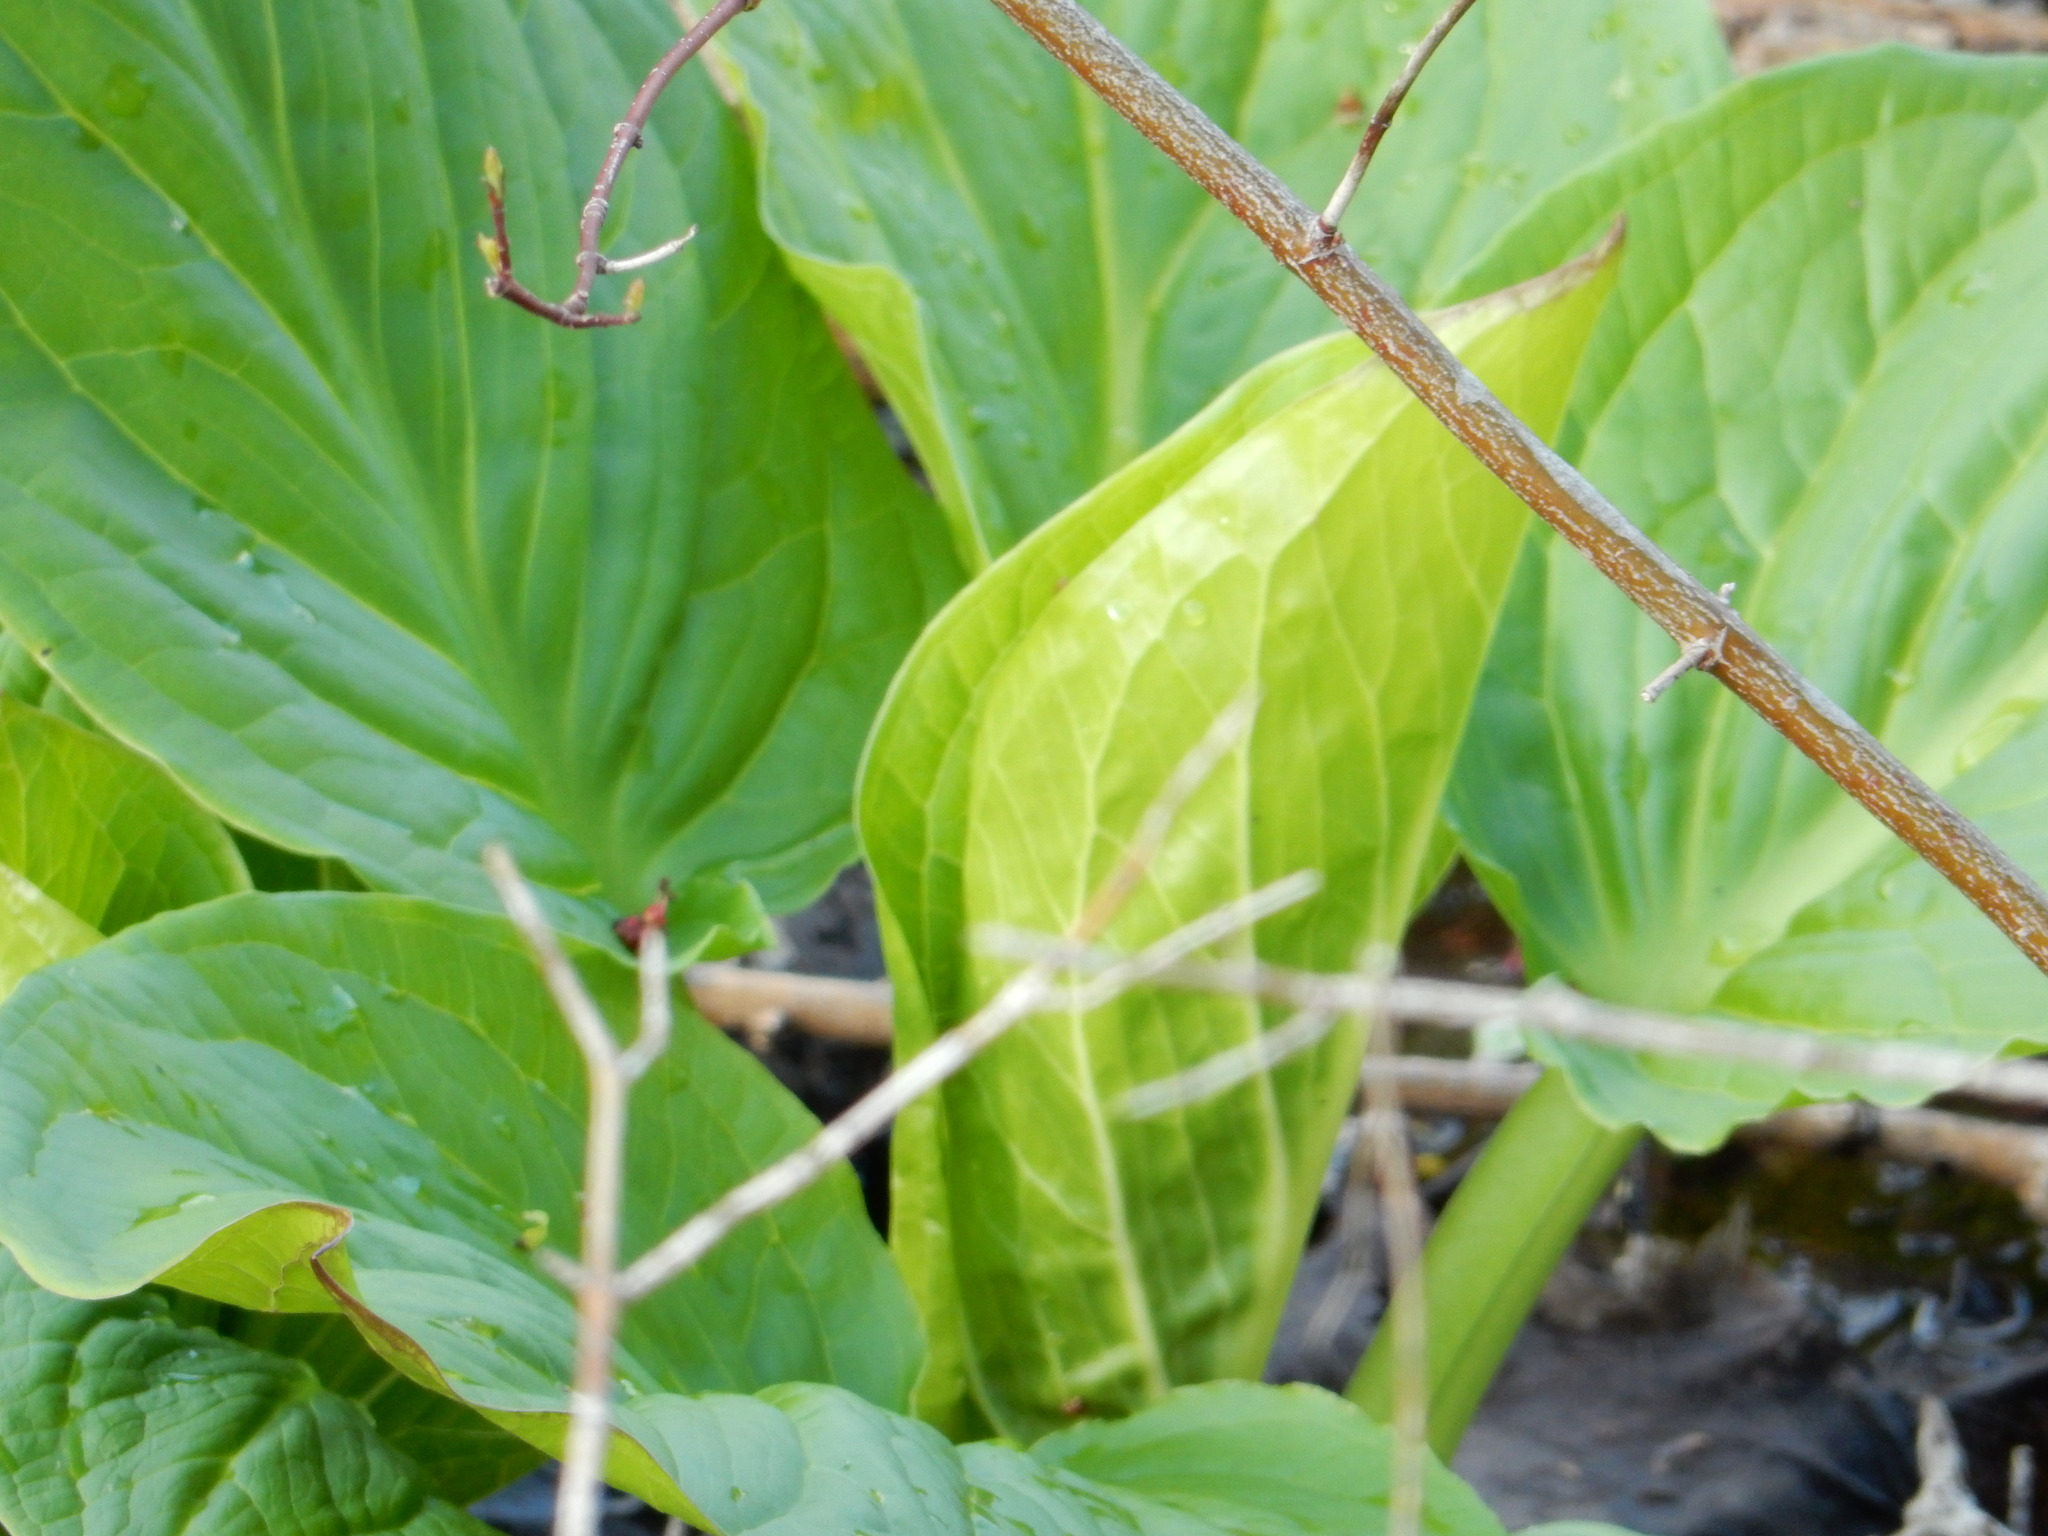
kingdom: Plantae
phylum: Tracheophyta
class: Liliopsida
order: Alismatales
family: Araceae
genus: Symplocarpus
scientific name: Symplocarpus foetidus
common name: Eastern skunk cabbage
